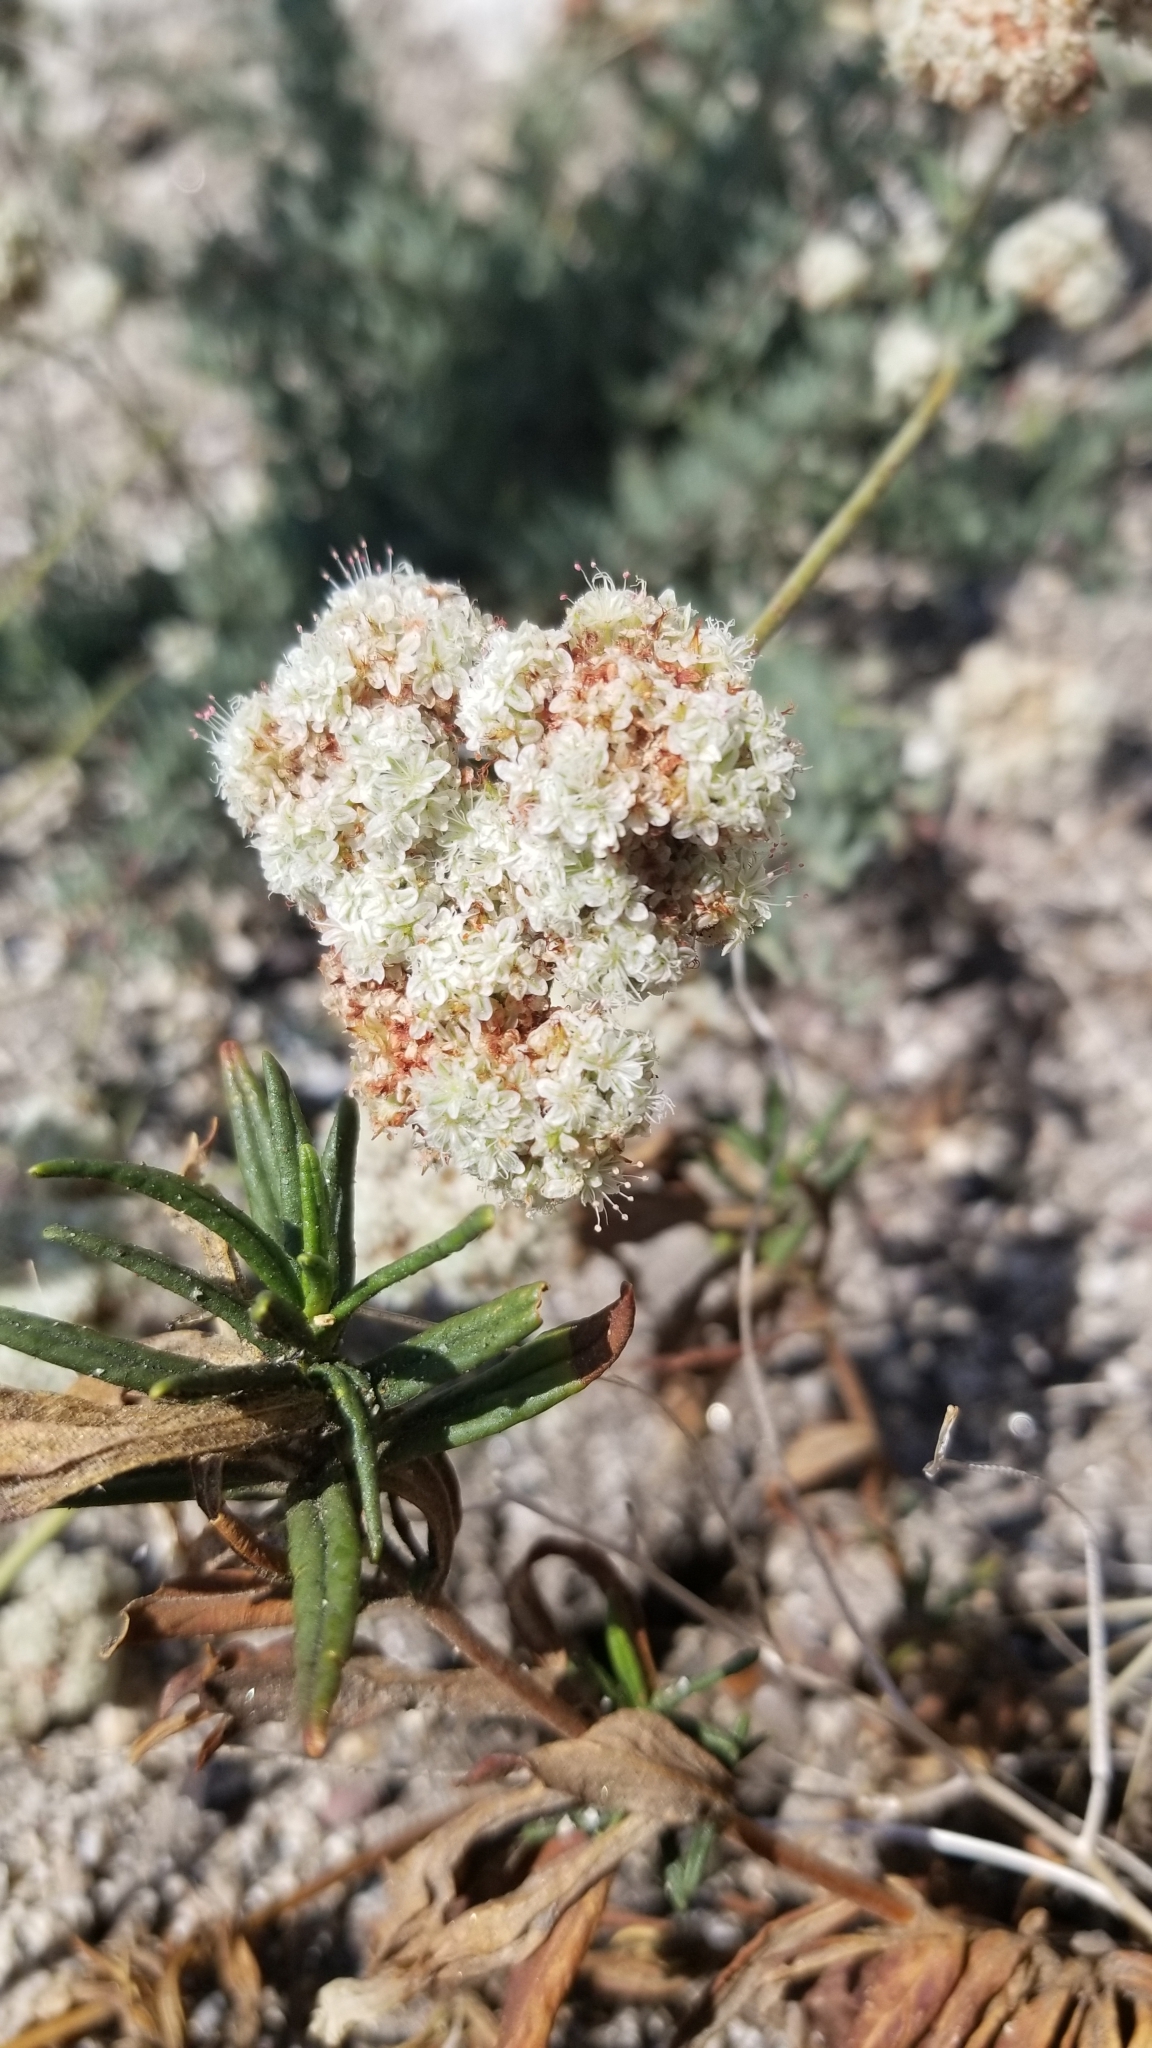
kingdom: Plantae
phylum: Tracheophyta
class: Magnoliopsida
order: Caryophyllales
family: Polygonaceae
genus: Eriogonum
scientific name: Eriogonum fasciculatum
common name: California wild buckwheat
